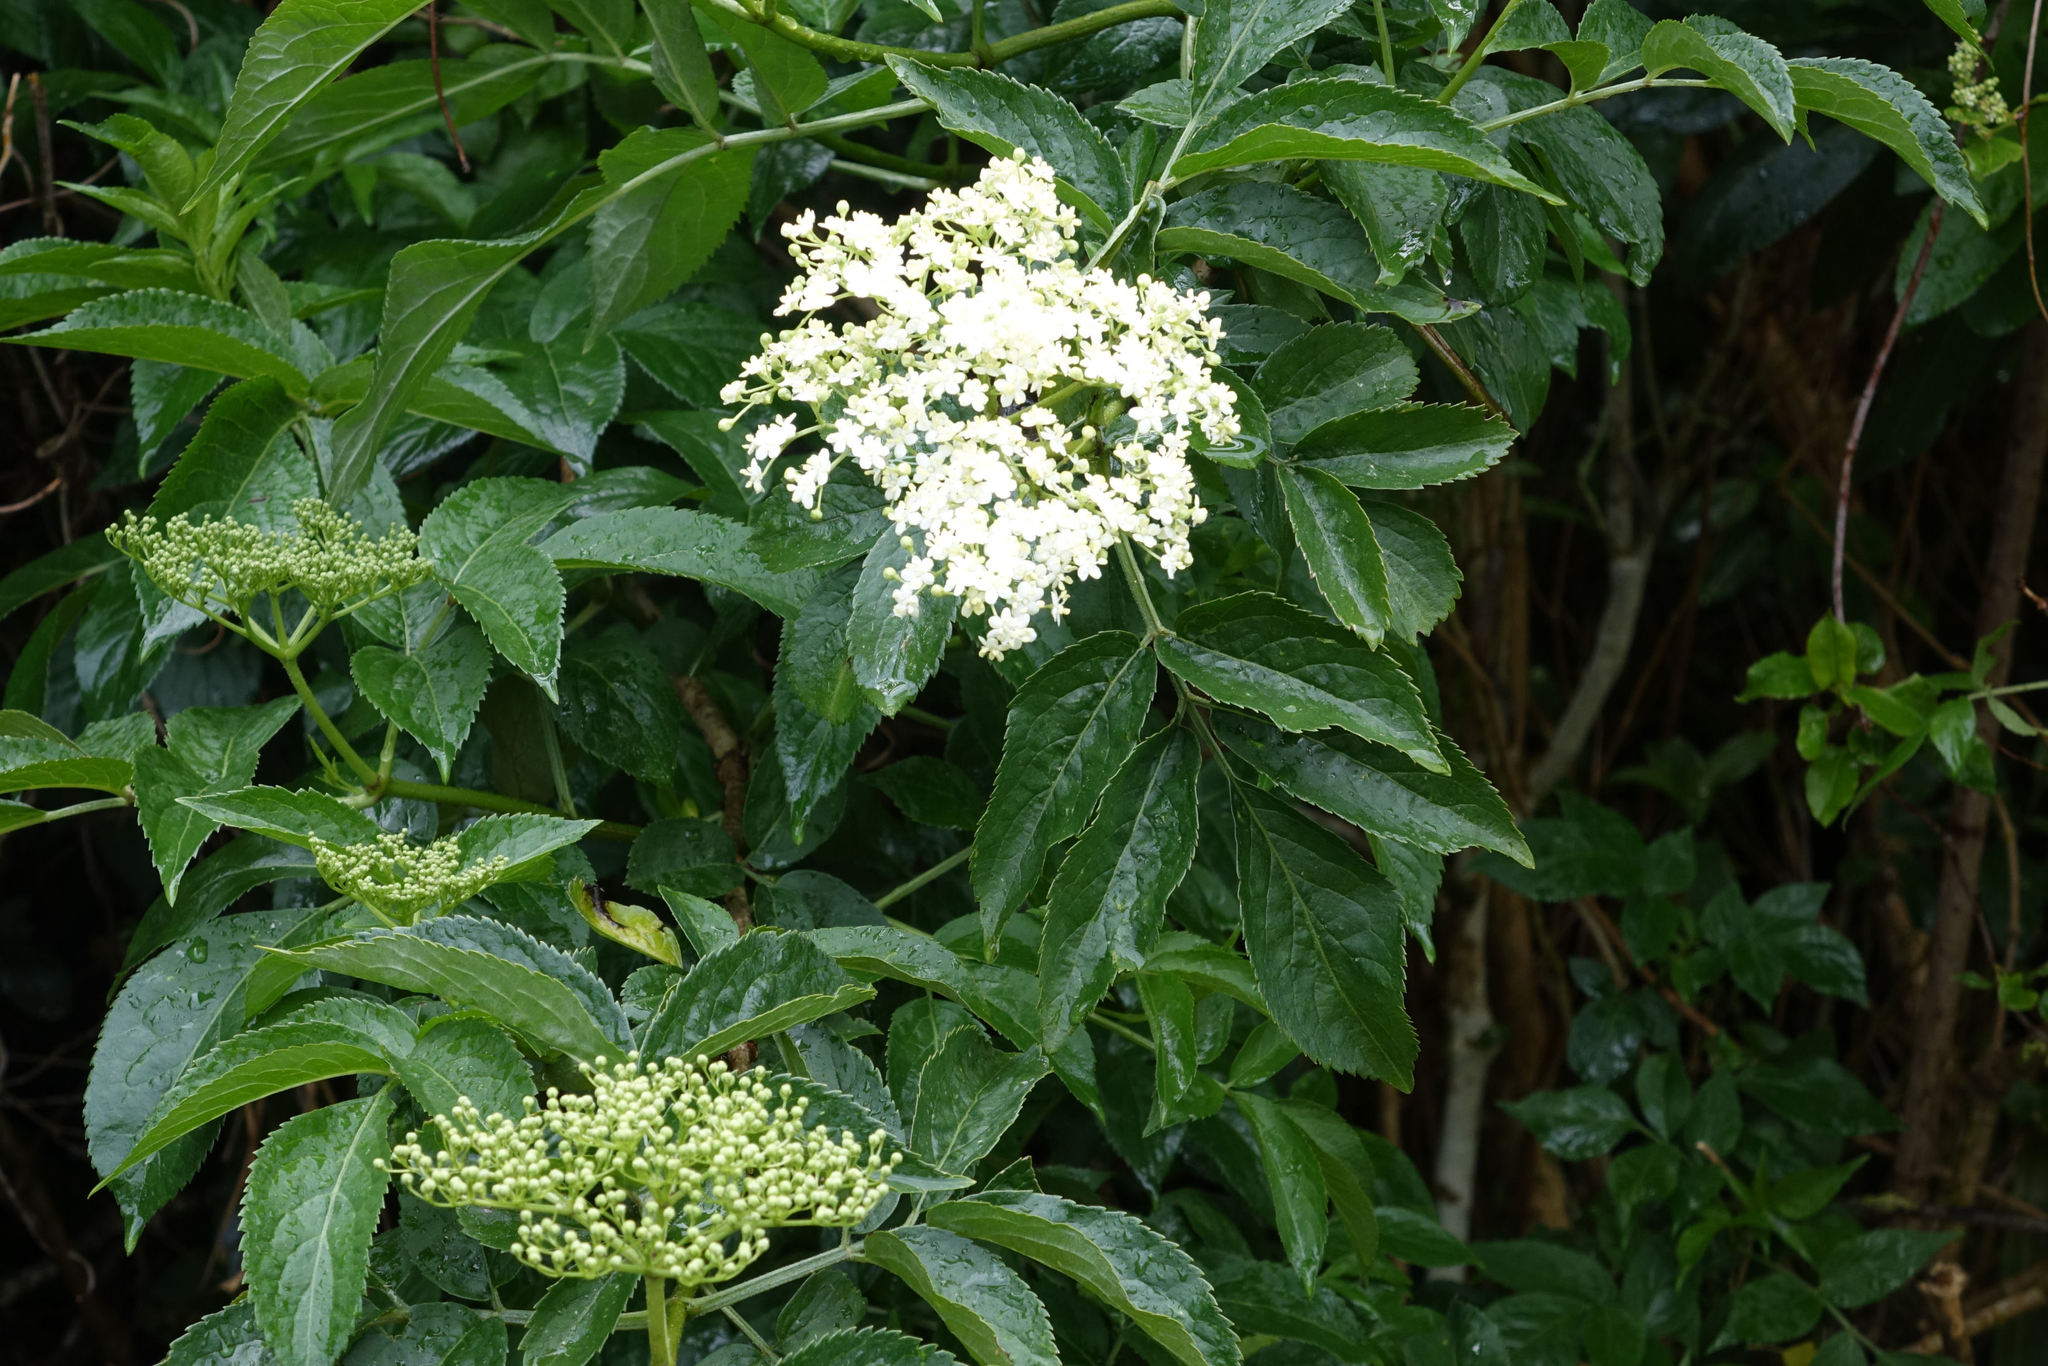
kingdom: Plantae
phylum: Tracheophyta
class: Magnoliopsida
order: Dipsacales
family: Viburnaceae
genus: Sambucus
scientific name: Sambucus nigra
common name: Elder
